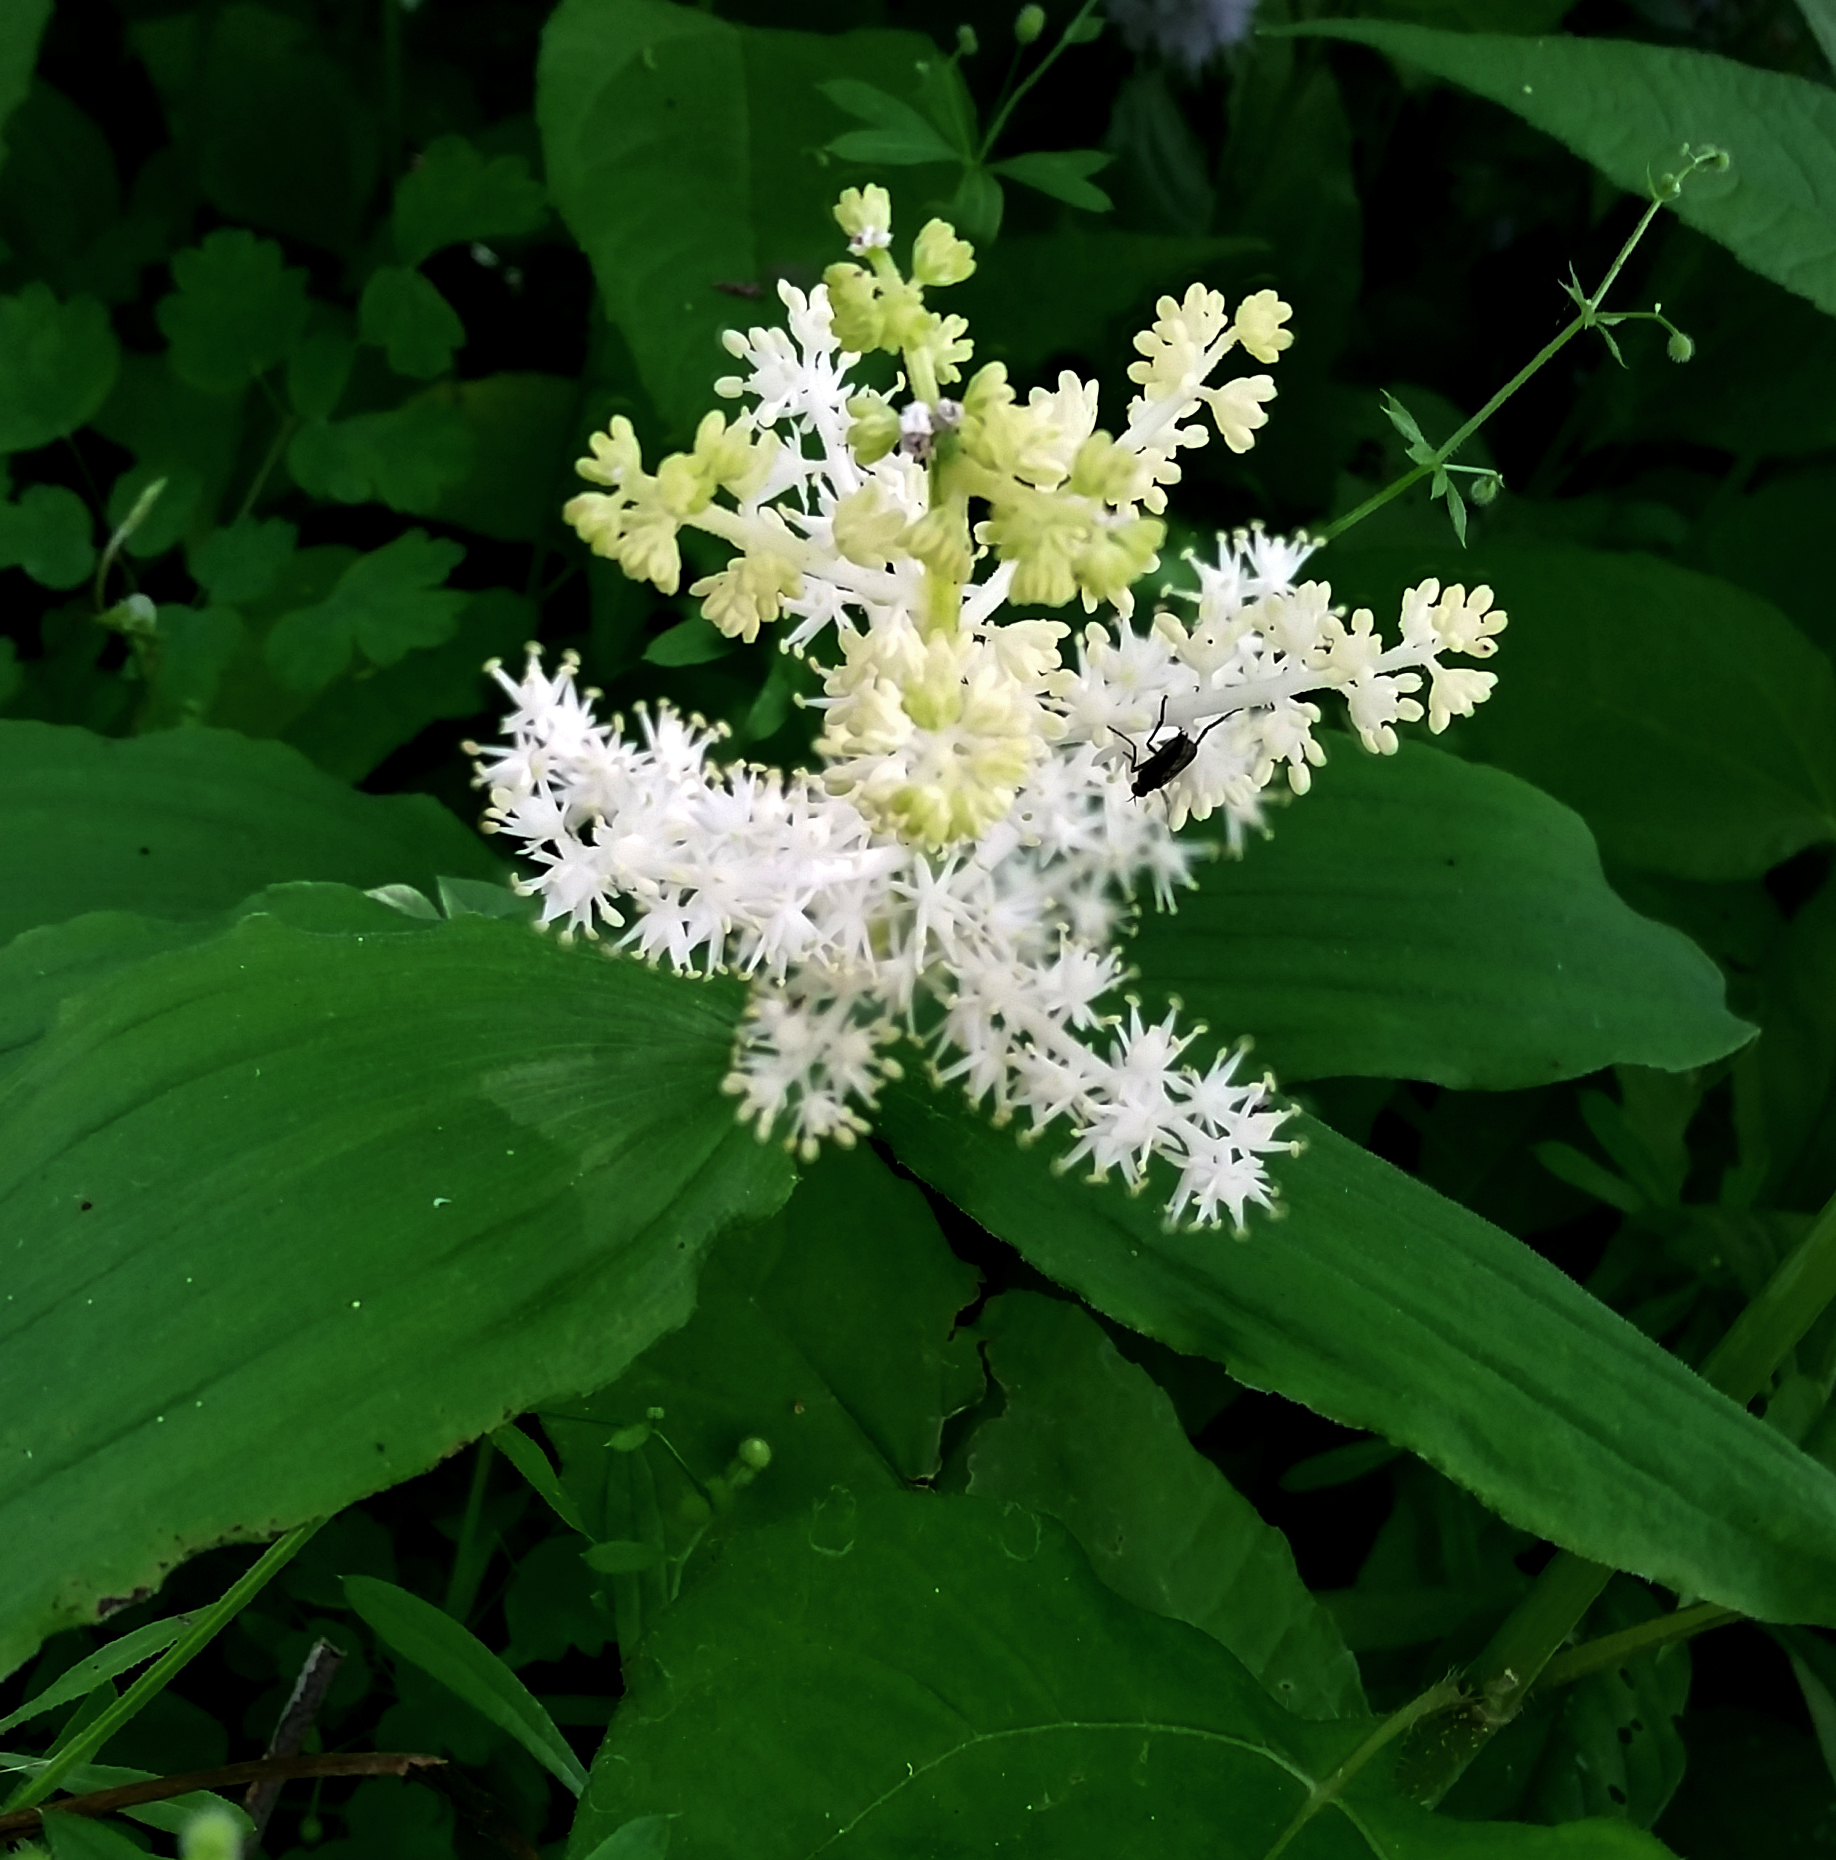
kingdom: Plantae
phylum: Tracheophyta
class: Liliopsida
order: Asparagales
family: Asparagaceae
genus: Maianthemum
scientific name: Maianthemum racemosum
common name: False spikenard
